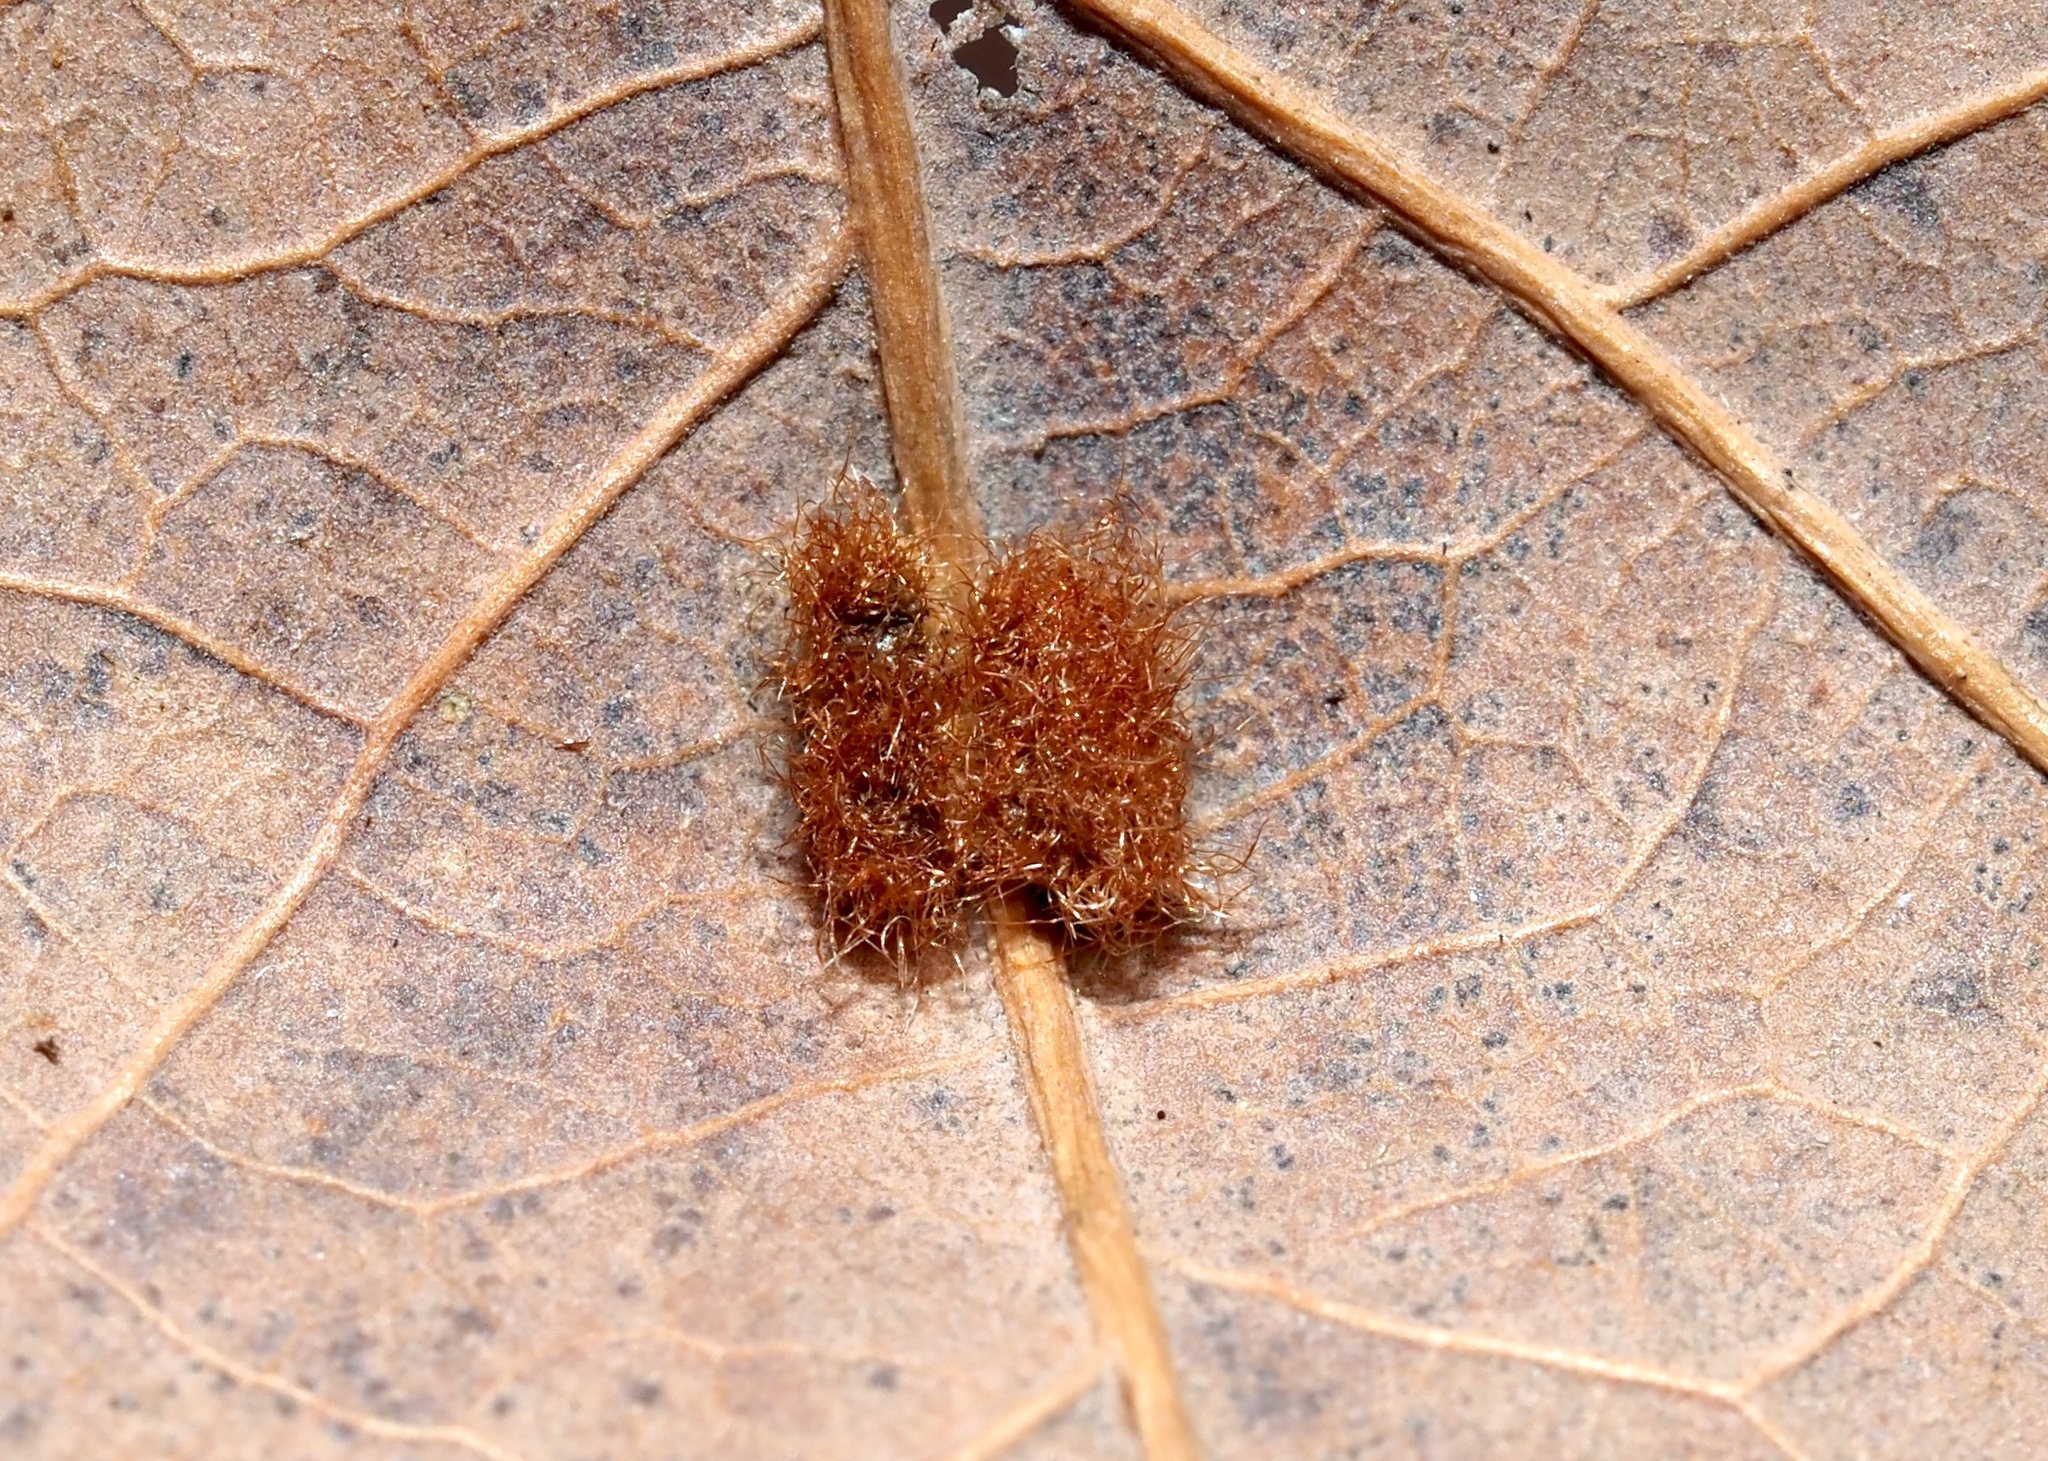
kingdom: Animalia
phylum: Arthropoda
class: Insecta
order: Hymenoptera
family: Cynipidae
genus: Neuroterus
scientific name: Neuroterus quercusverrucarum
